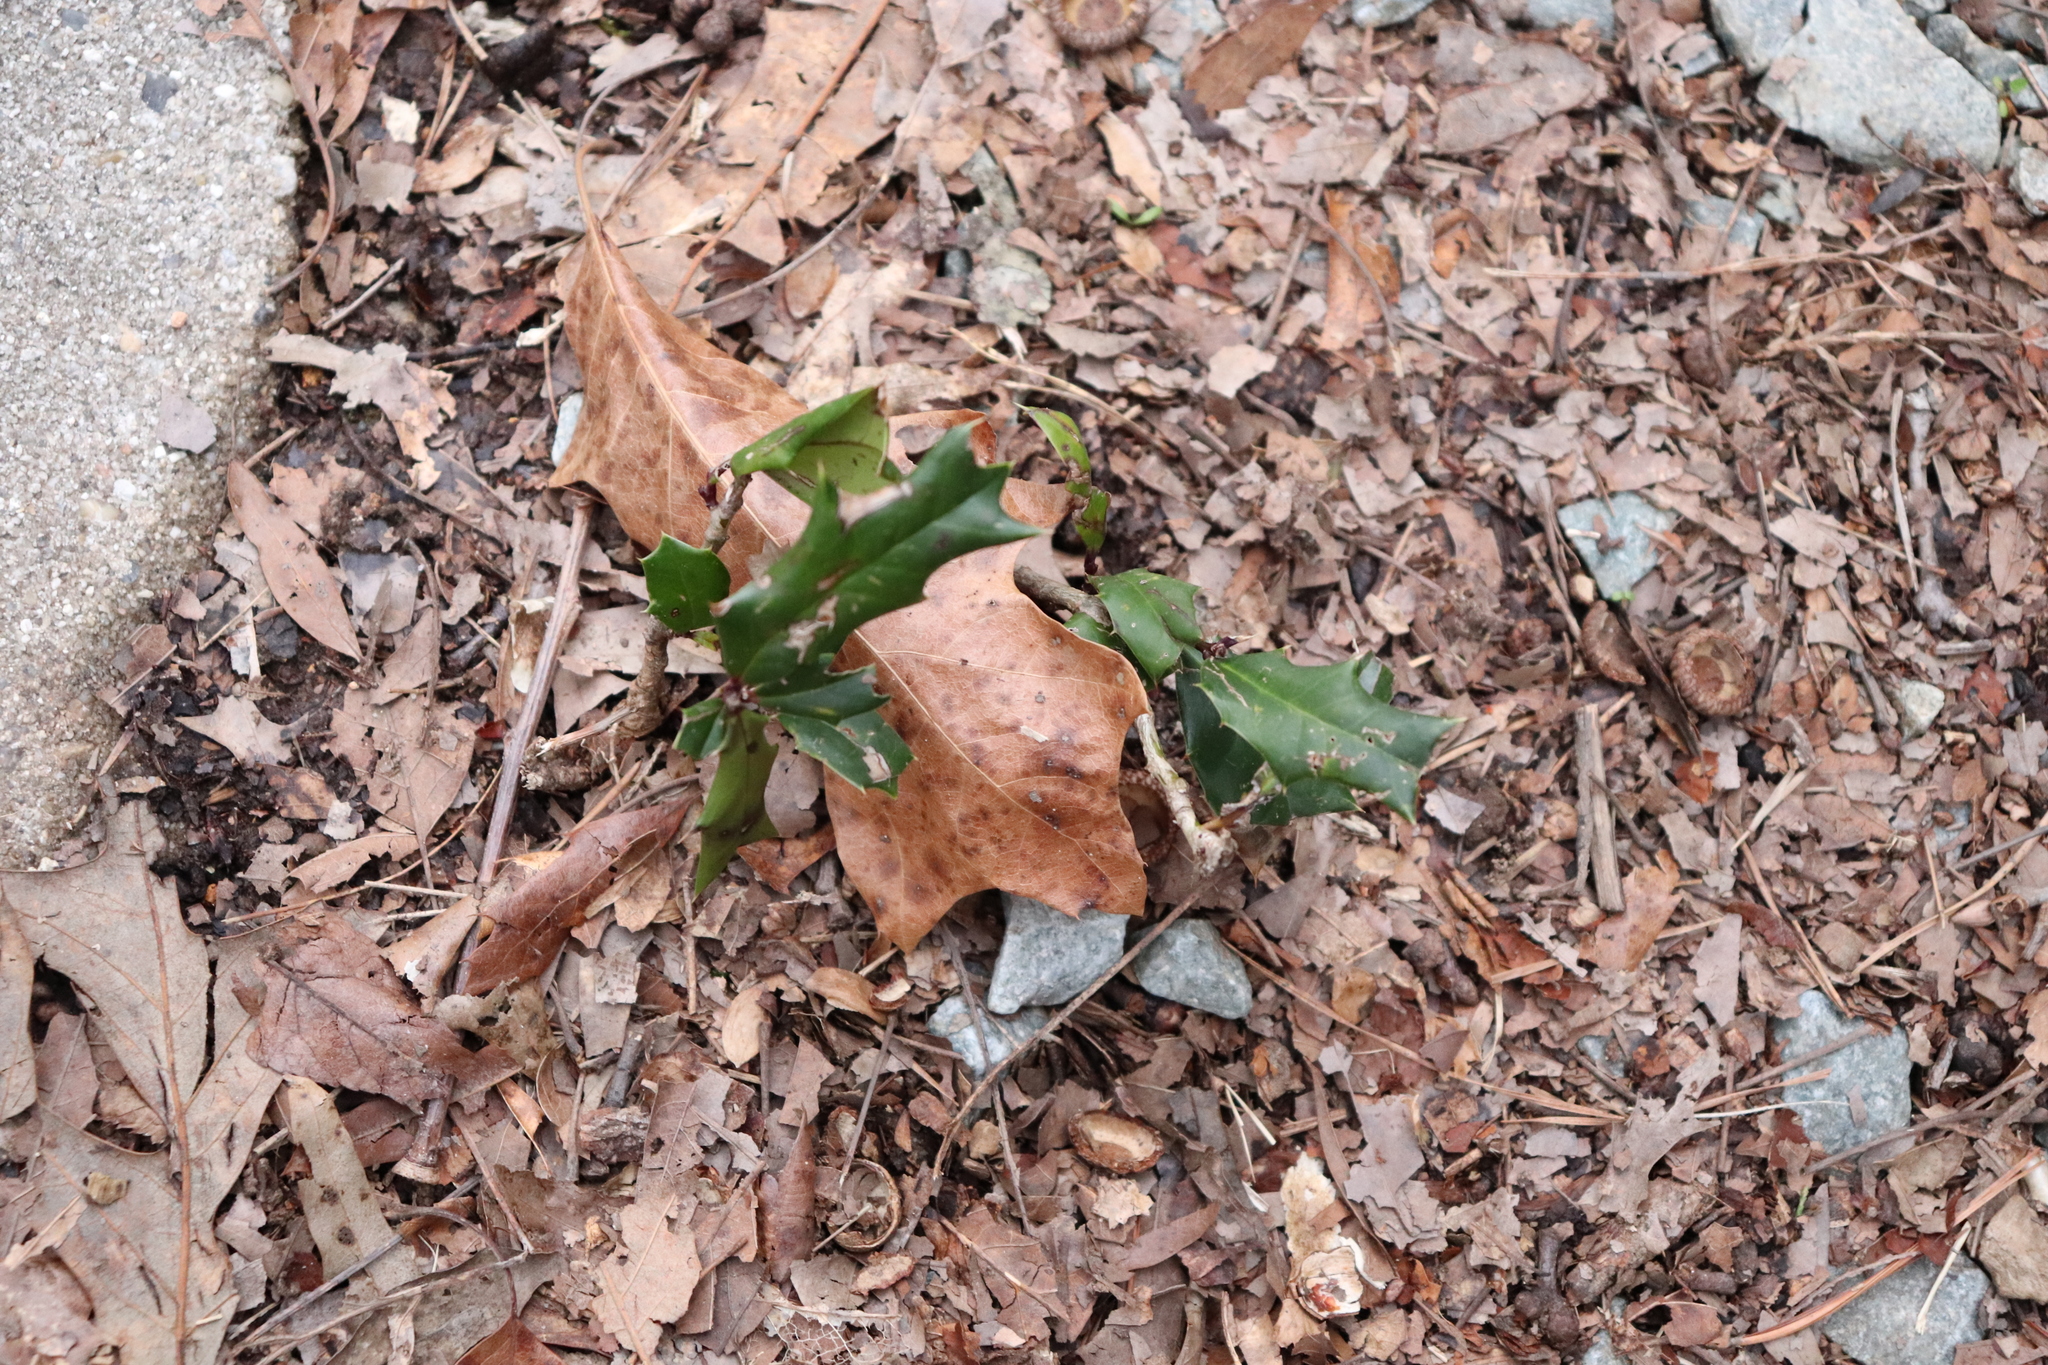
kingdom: Plantae
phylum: Tracheophyta
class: Magnoliopsida
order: Aquifoliales
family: Aquifoliaceae
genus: Ilex
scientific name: Ilex opaca
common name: American holly
